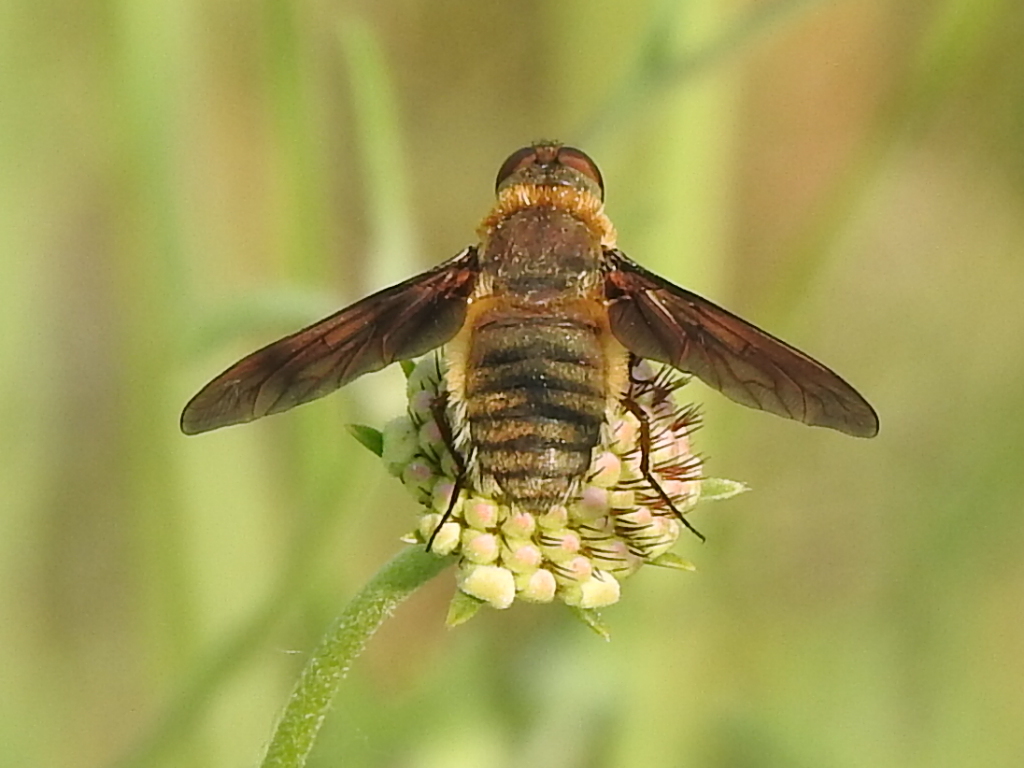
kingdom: Animalia
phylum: Arthropoda
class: Insecta
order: Diptera
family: Bombyliidae
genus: Poecilanthrax
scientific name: Poecilanthrax lucifer
